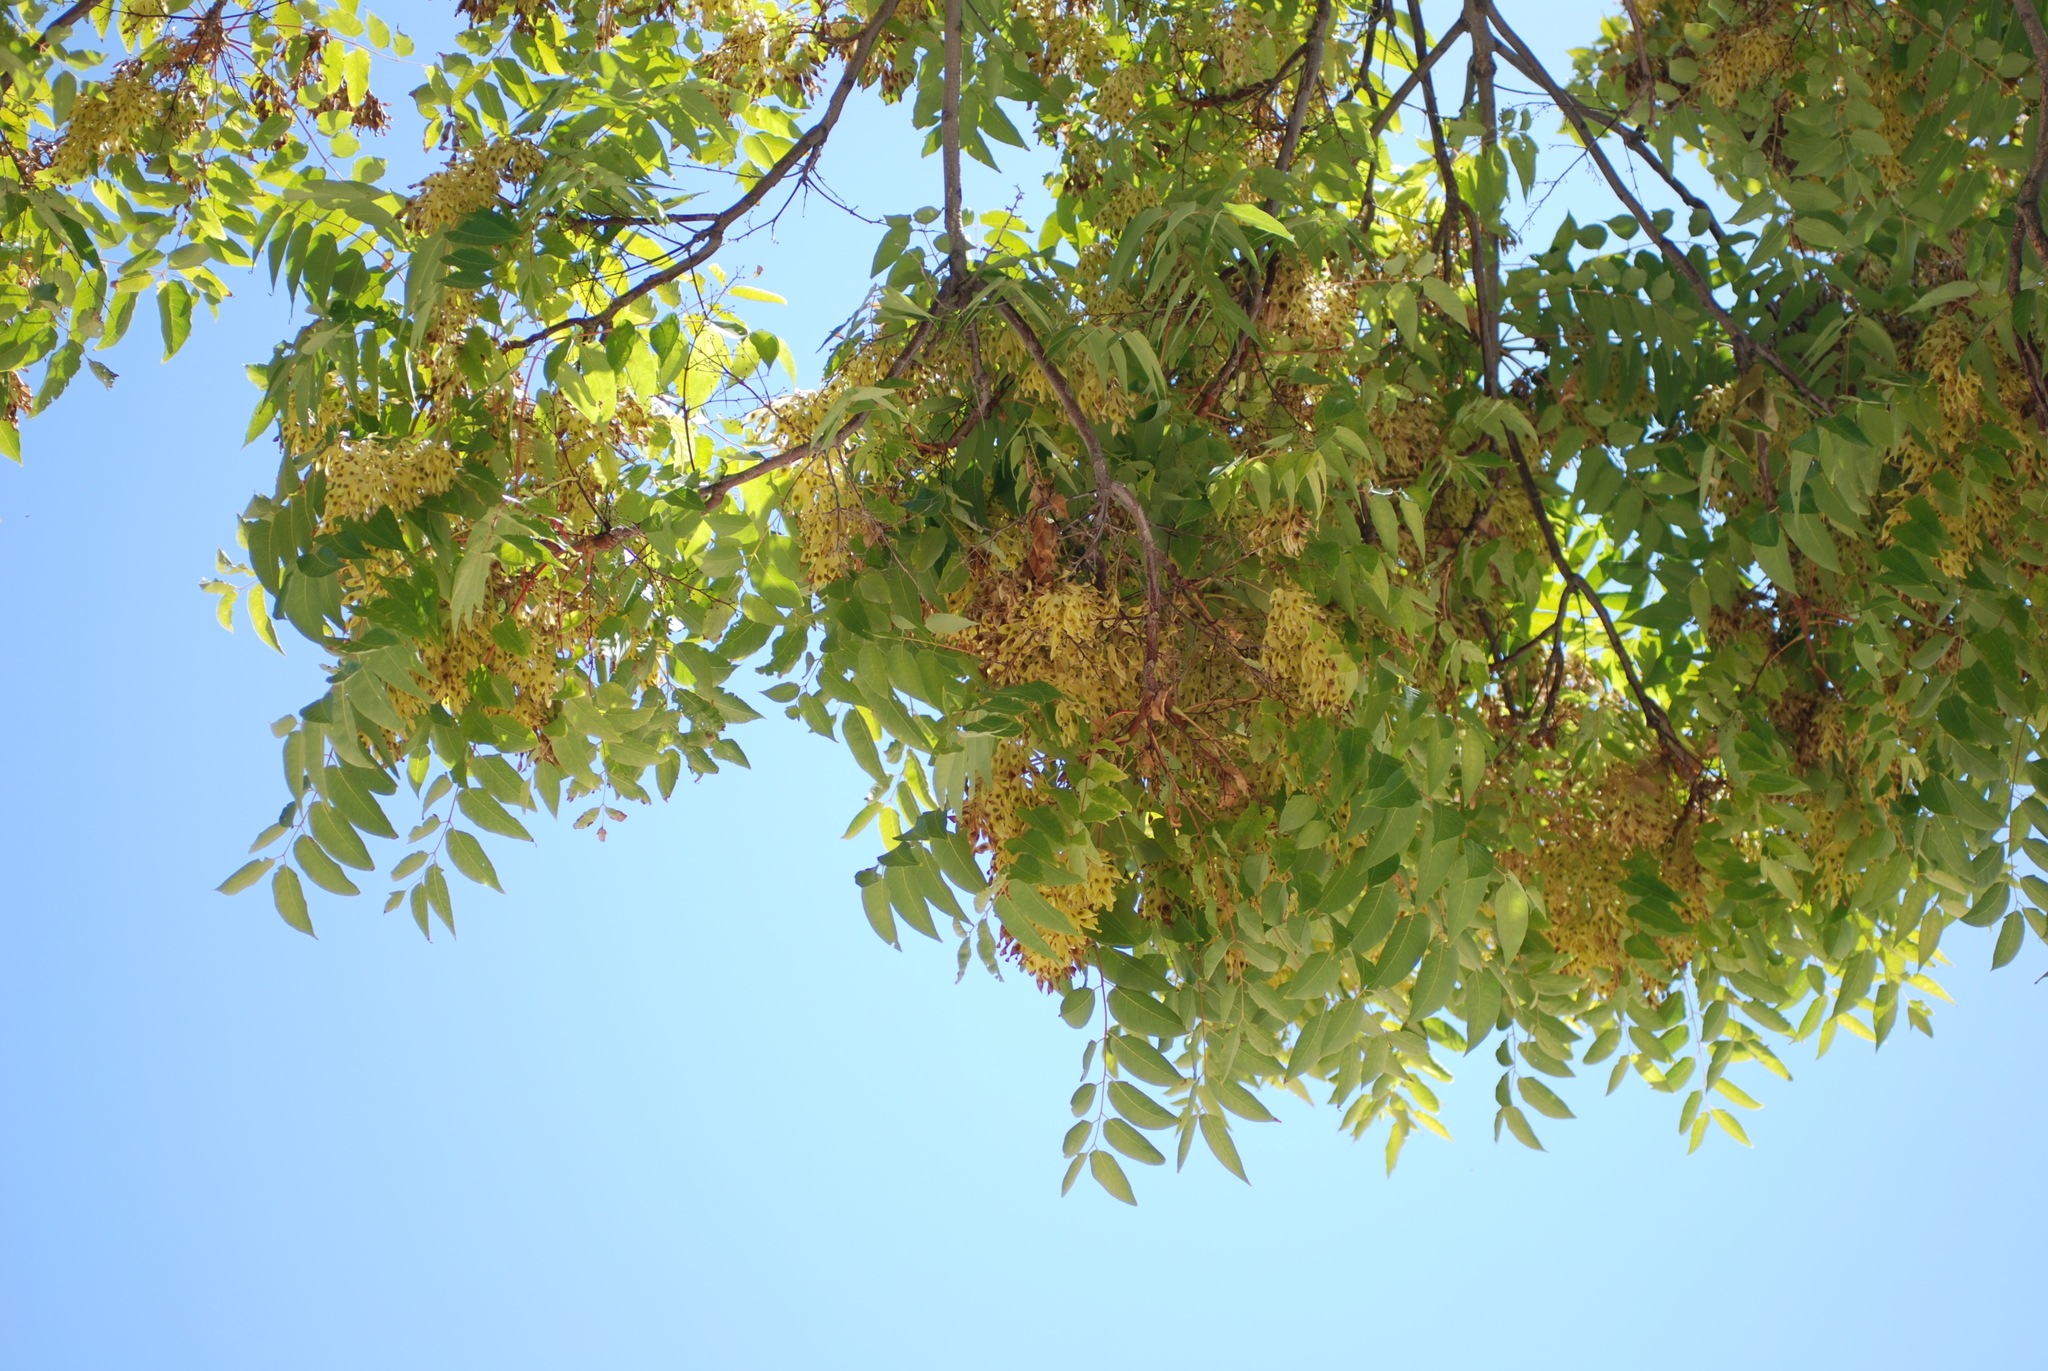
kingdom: Plantae
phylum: Tracheophyta
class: Magnoliopsida
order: Sapindales
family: Simaroubaceae
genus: Ailanthus
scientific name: Ailanthus altissima
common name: Tree-of-heaven
